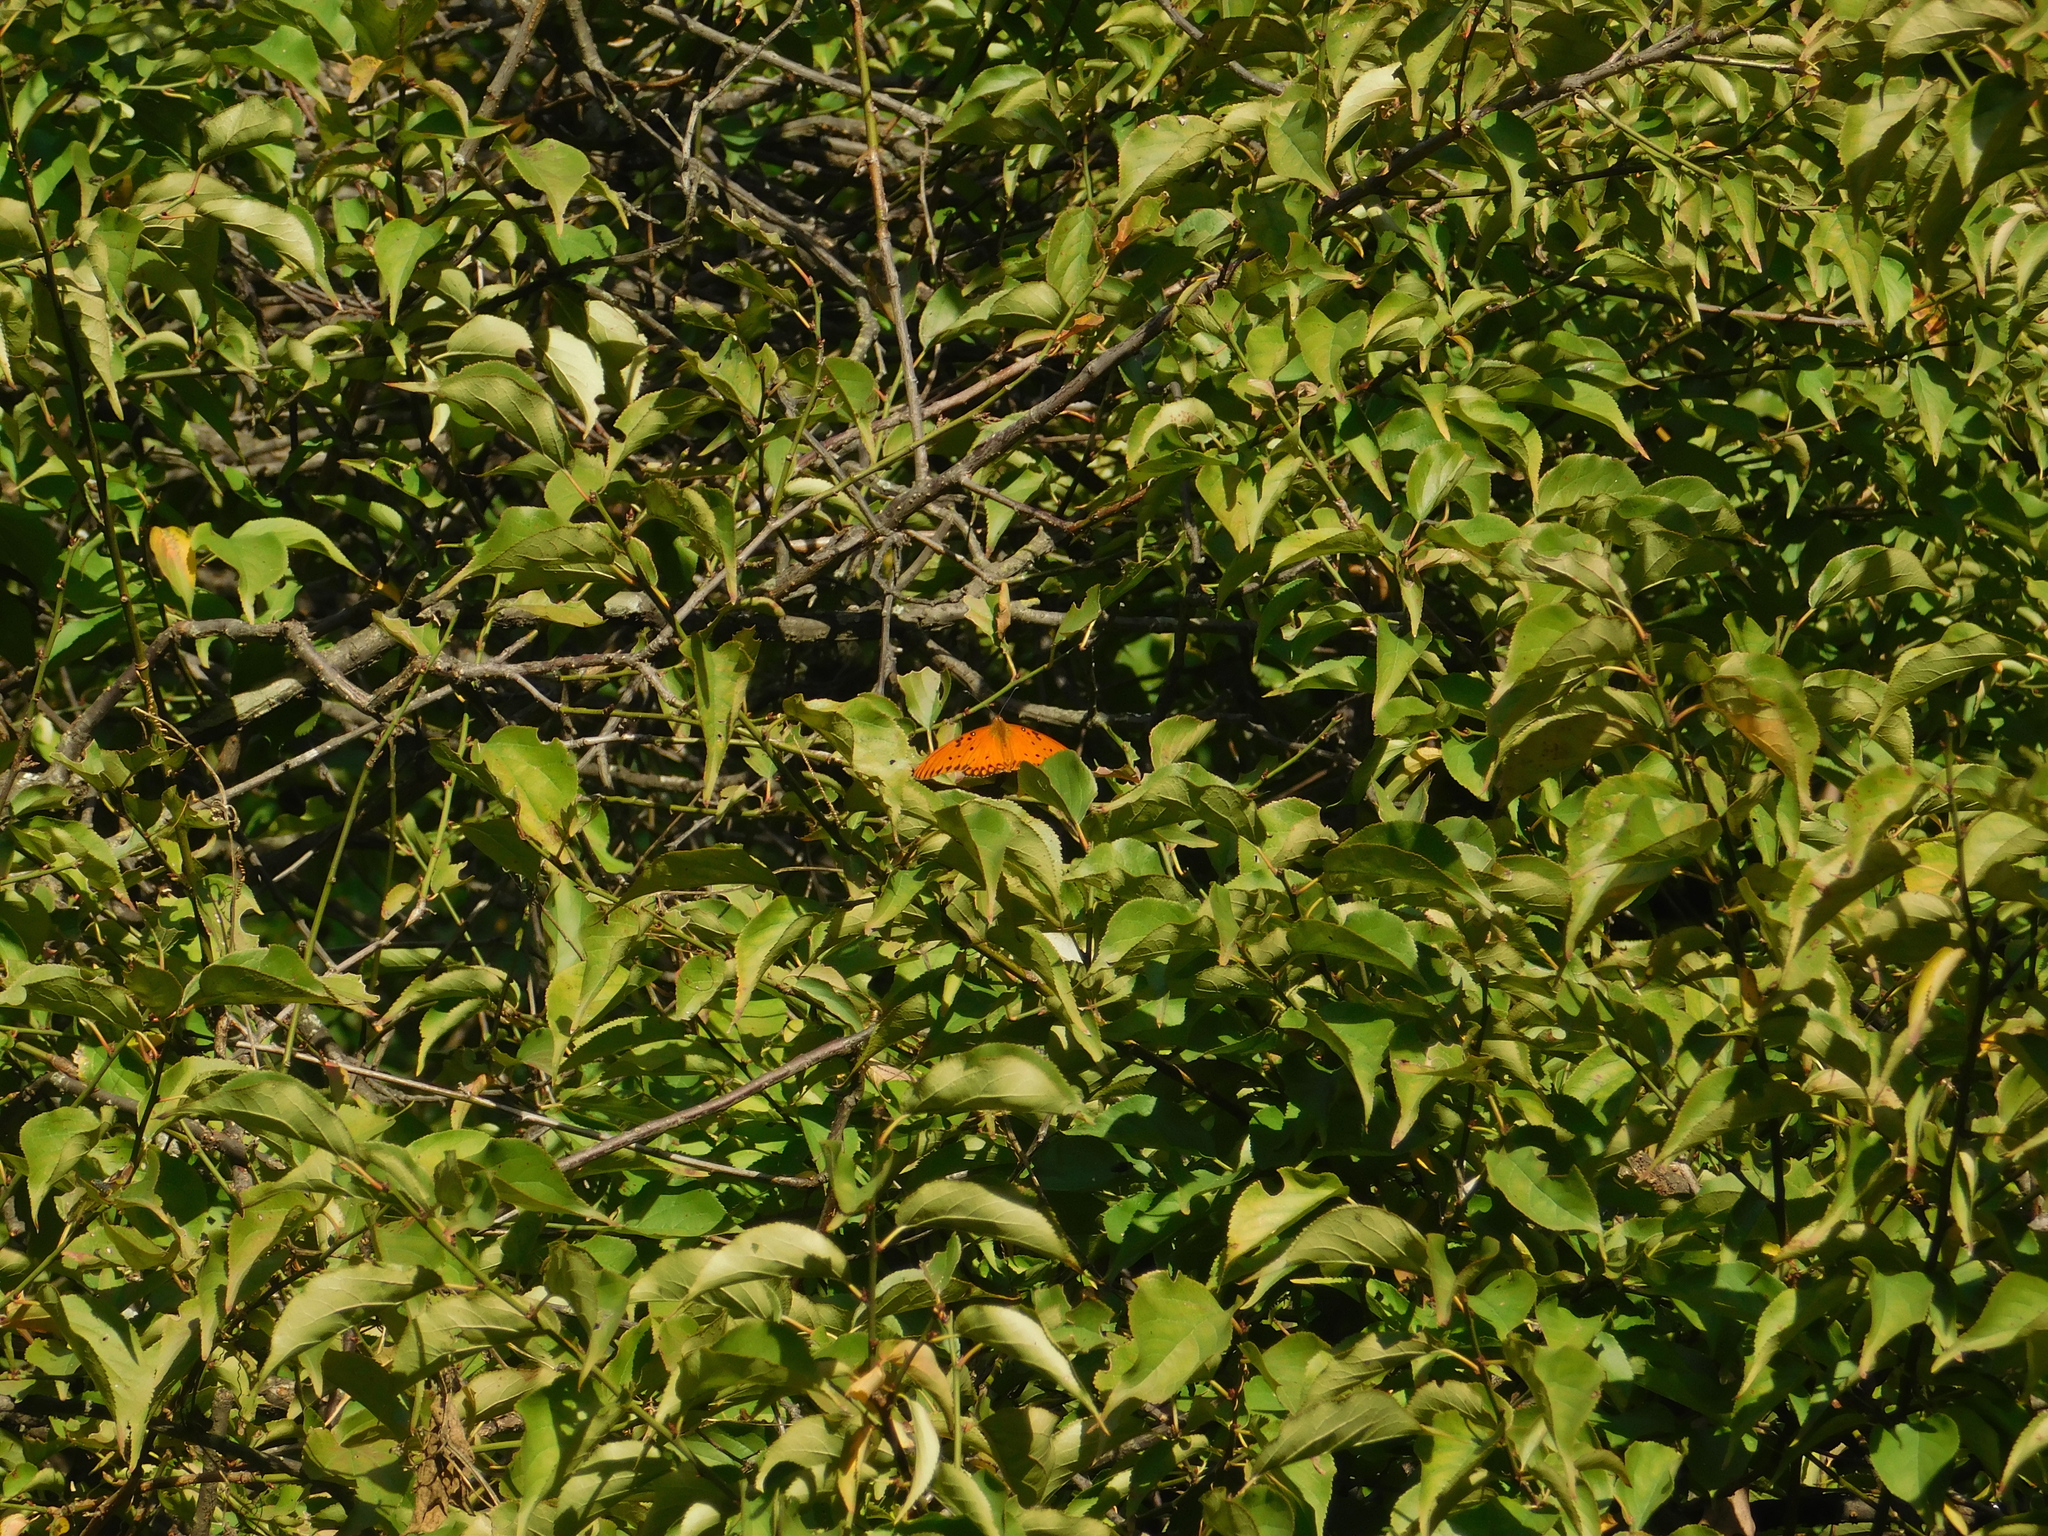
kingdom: Animalia
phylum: Arthropoda
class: Insecta
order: Lepidoptera
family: Nymphalidae
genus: Dione
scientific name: Dione vanillae
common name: Gulf fritillary
